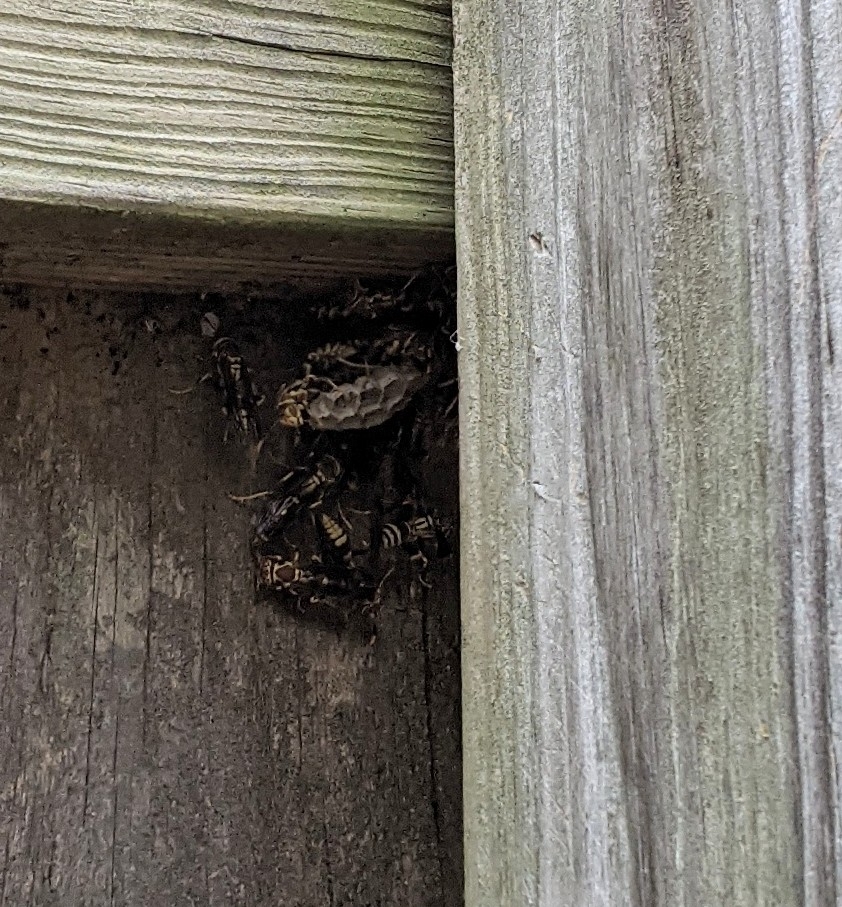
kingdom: Animalia
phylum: Arthropoda
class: Insecta
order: Hymenoptera
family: Eumenidae
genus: Polistes
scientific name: Polistes exclamans
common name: Paper wasp
